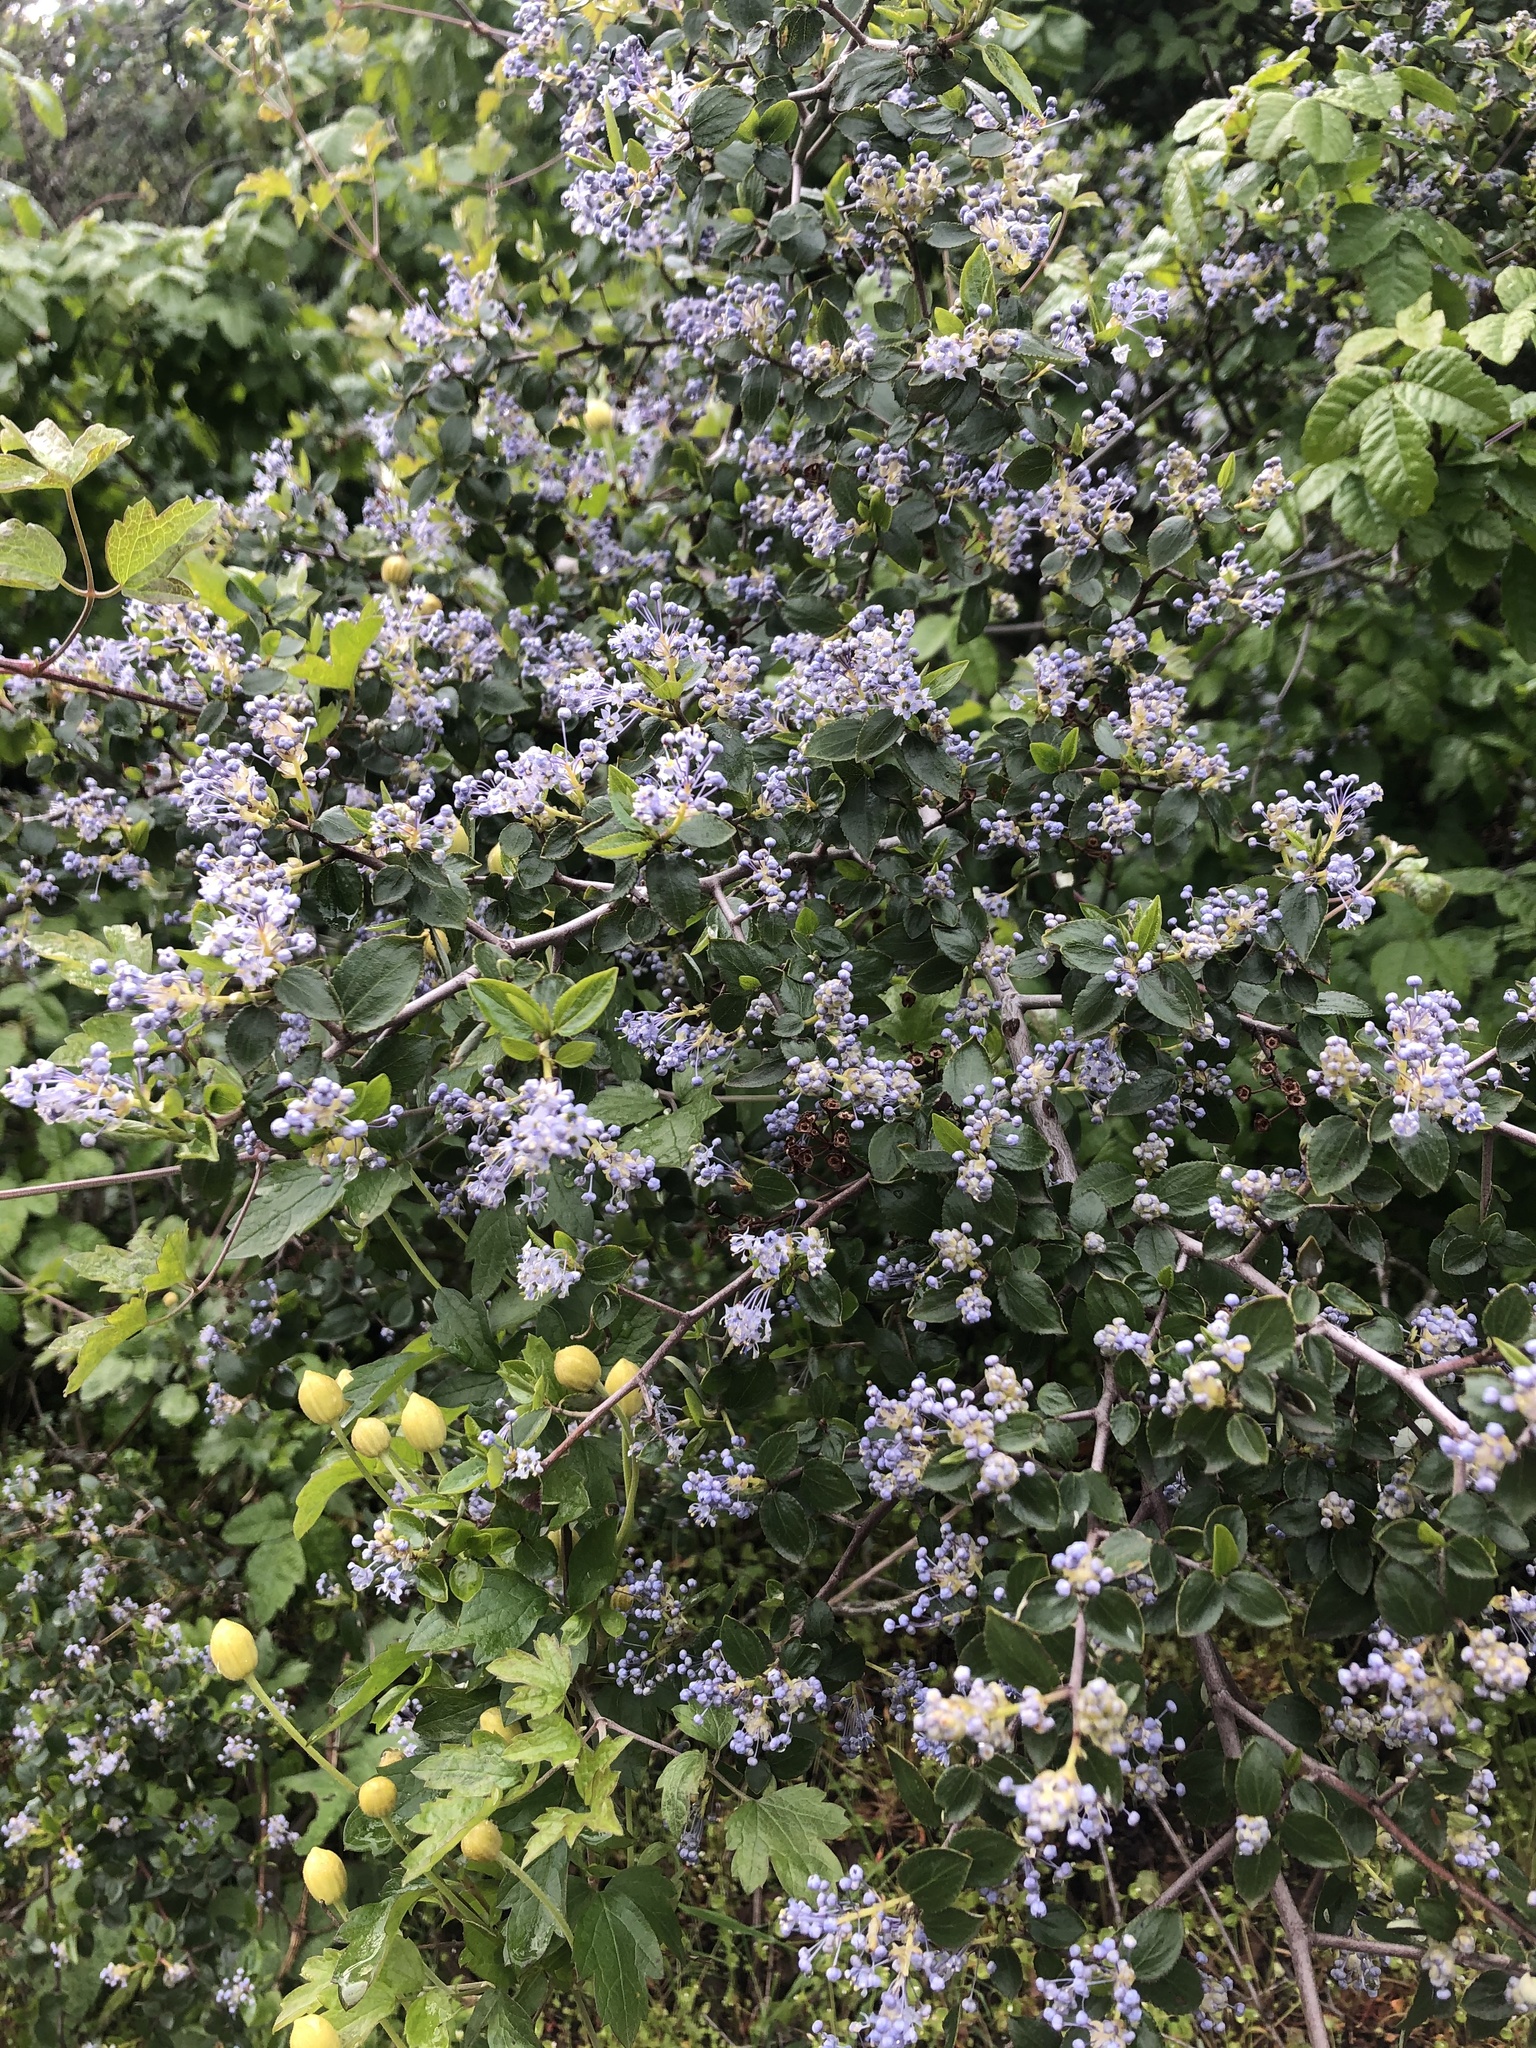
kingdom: Plantae
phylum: Tracheophyta
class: Magnoliopsida
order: Rosales
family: Rhamnaceae
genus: Ceanothus
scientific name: Ceanothus oliganthus
